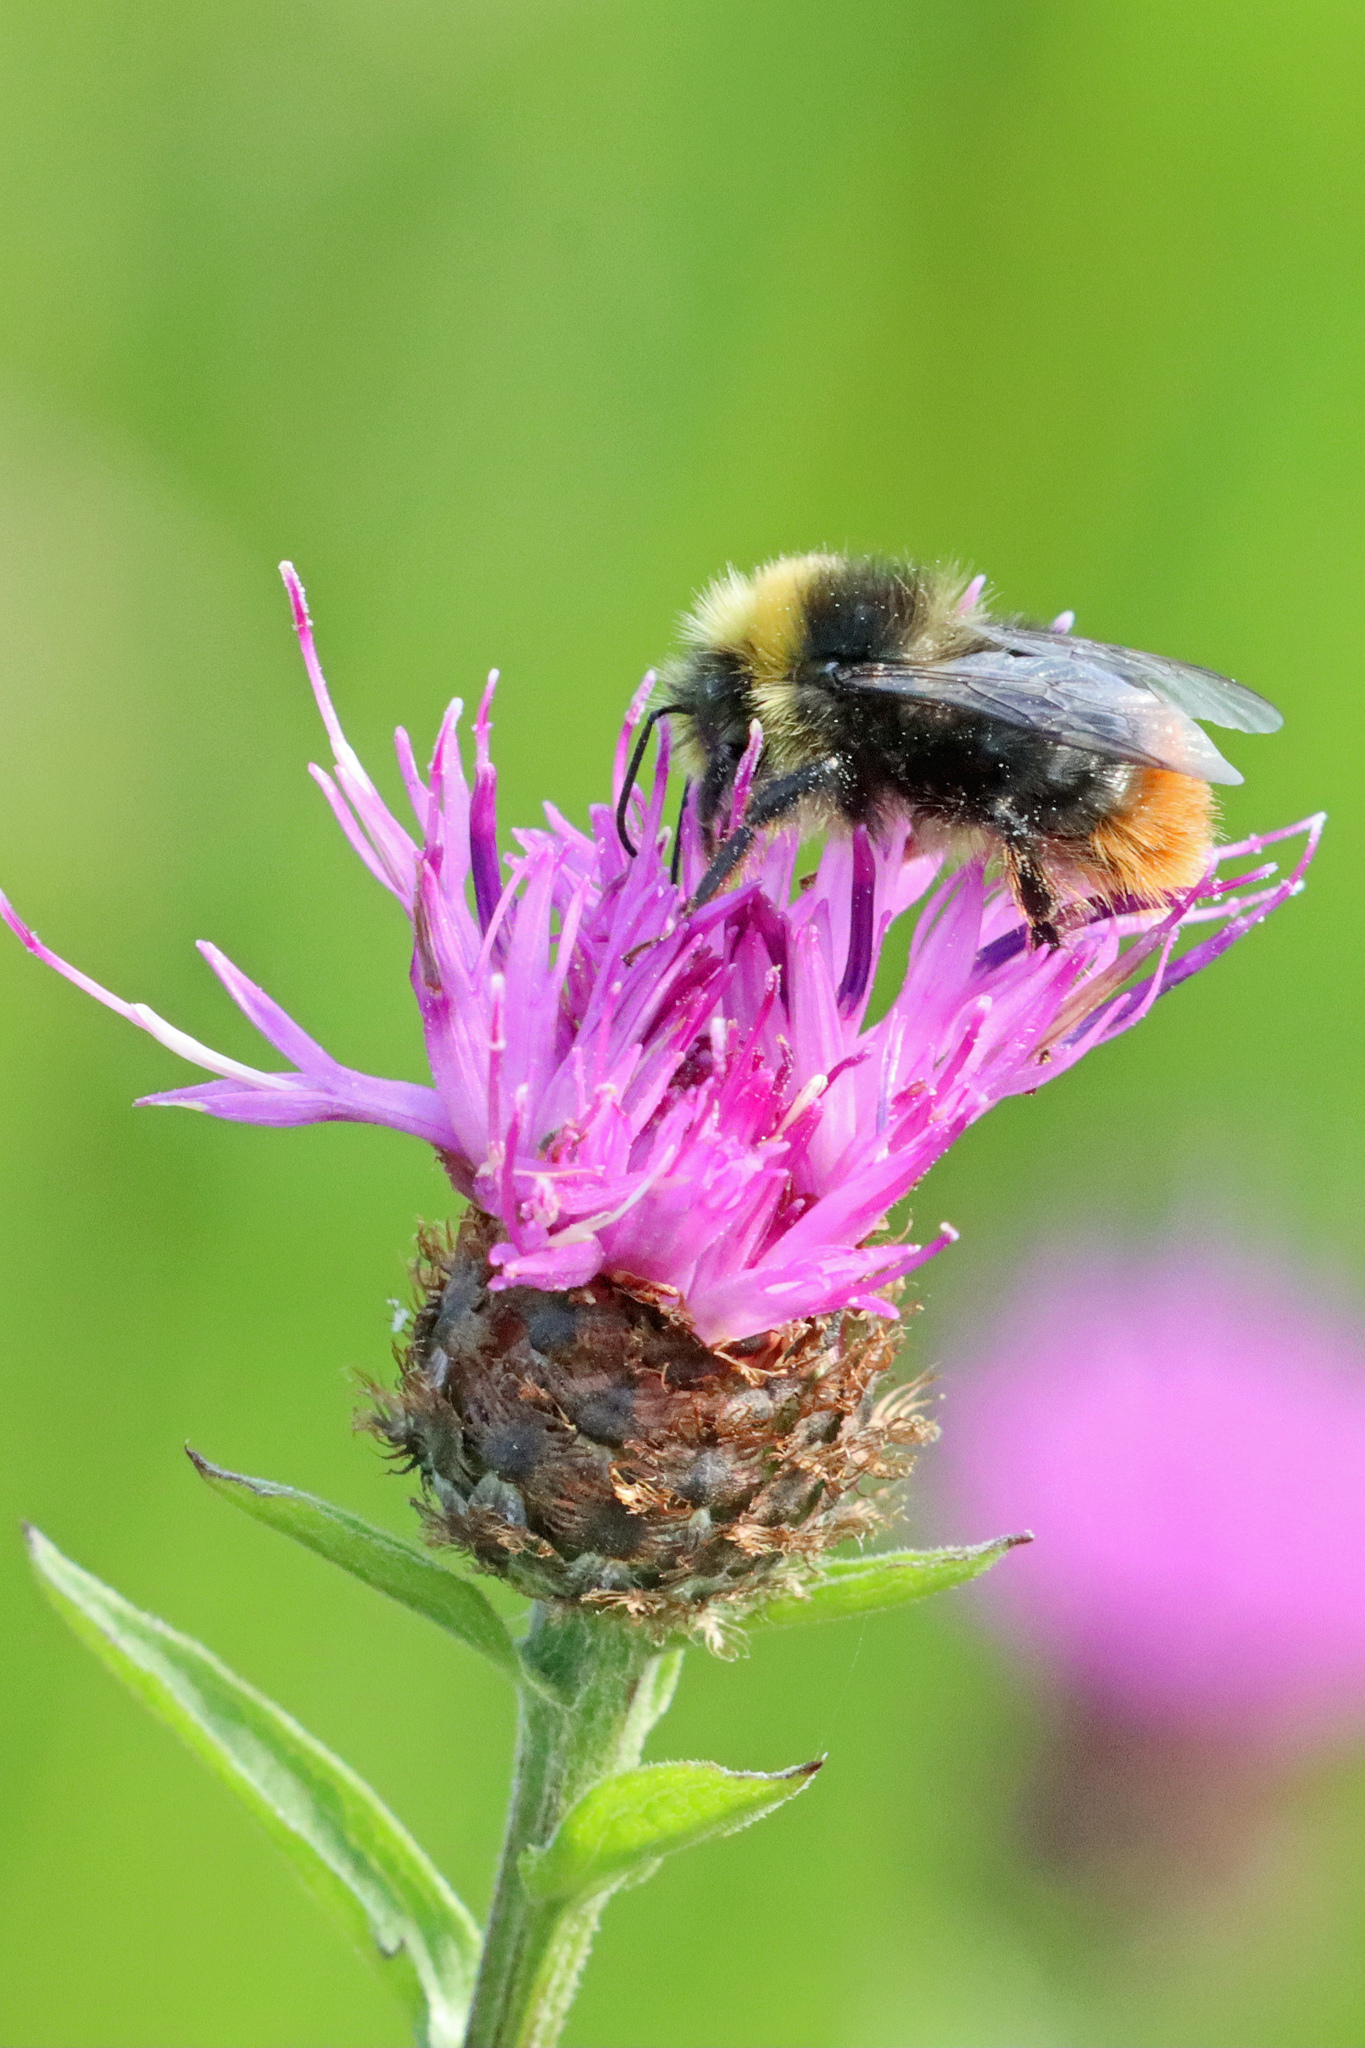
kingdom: Animalia
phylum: Arthropoda
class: Insecta
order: Hymenoptera
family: Apidae
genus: Bombus
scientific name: Bombus lapidarius
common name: Large red-tailed humble-bee
